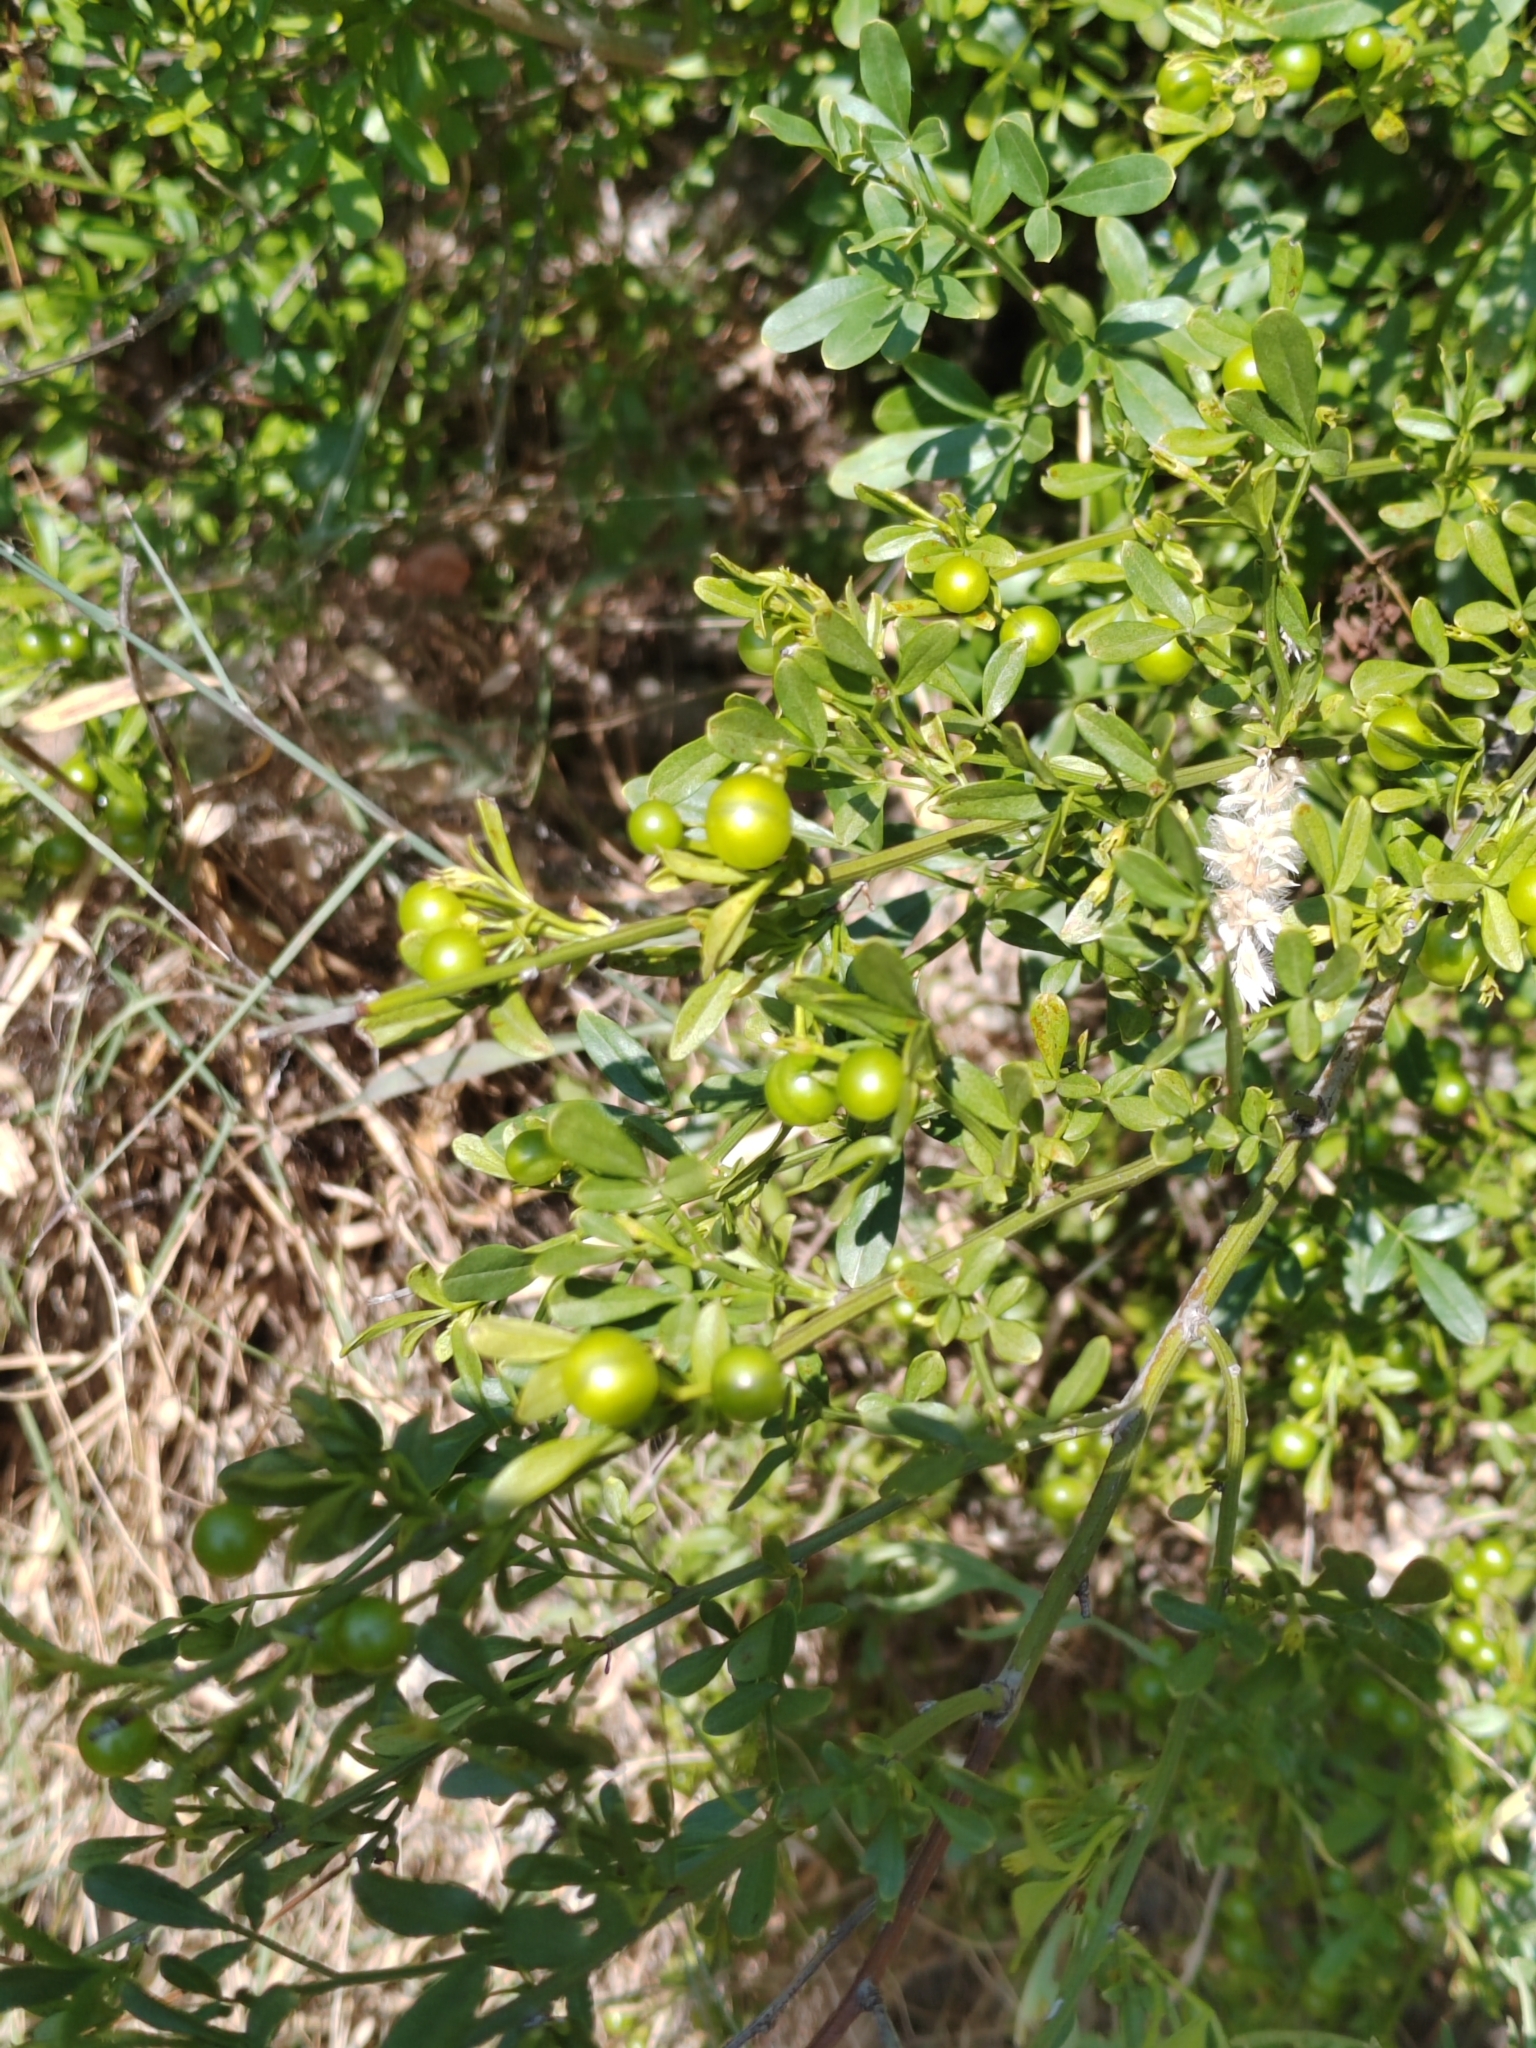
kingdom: Plantae
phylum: Tracheophyta
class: Magnoliopsida
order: Lamiales
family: Oleaceae
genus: Chrysojasminum
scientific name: Chrysojasminum fruticans
